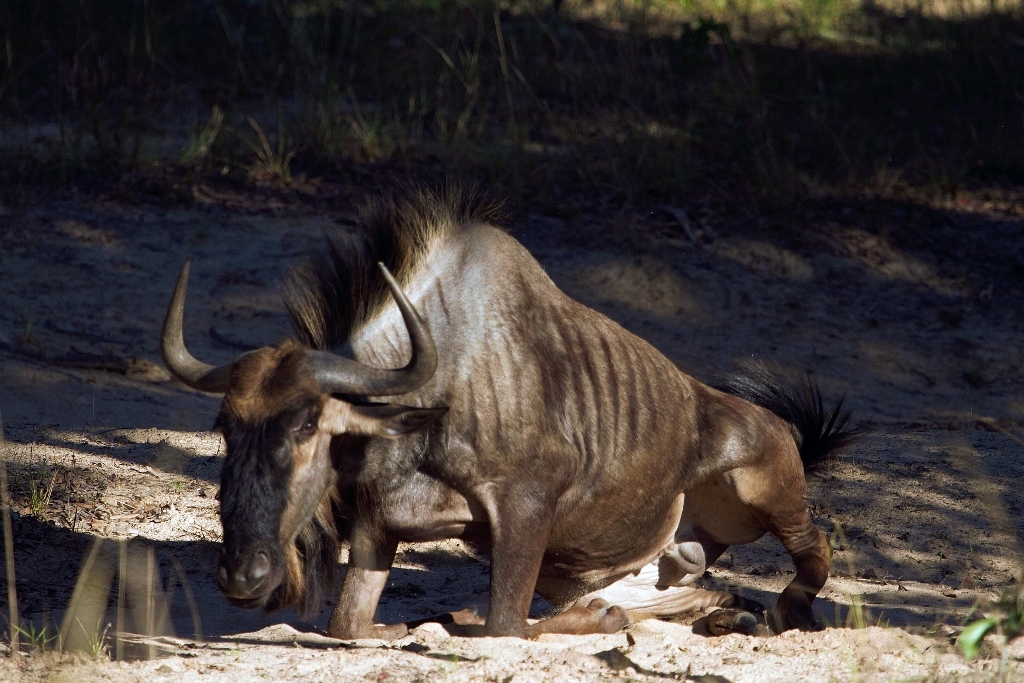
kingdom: Animalia
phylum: Chordata
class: Mammalia
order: Artiodactyla
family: Bovidae
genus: Connochaetes
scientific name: Connochaetes taurinus
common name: Blue wildebeest
